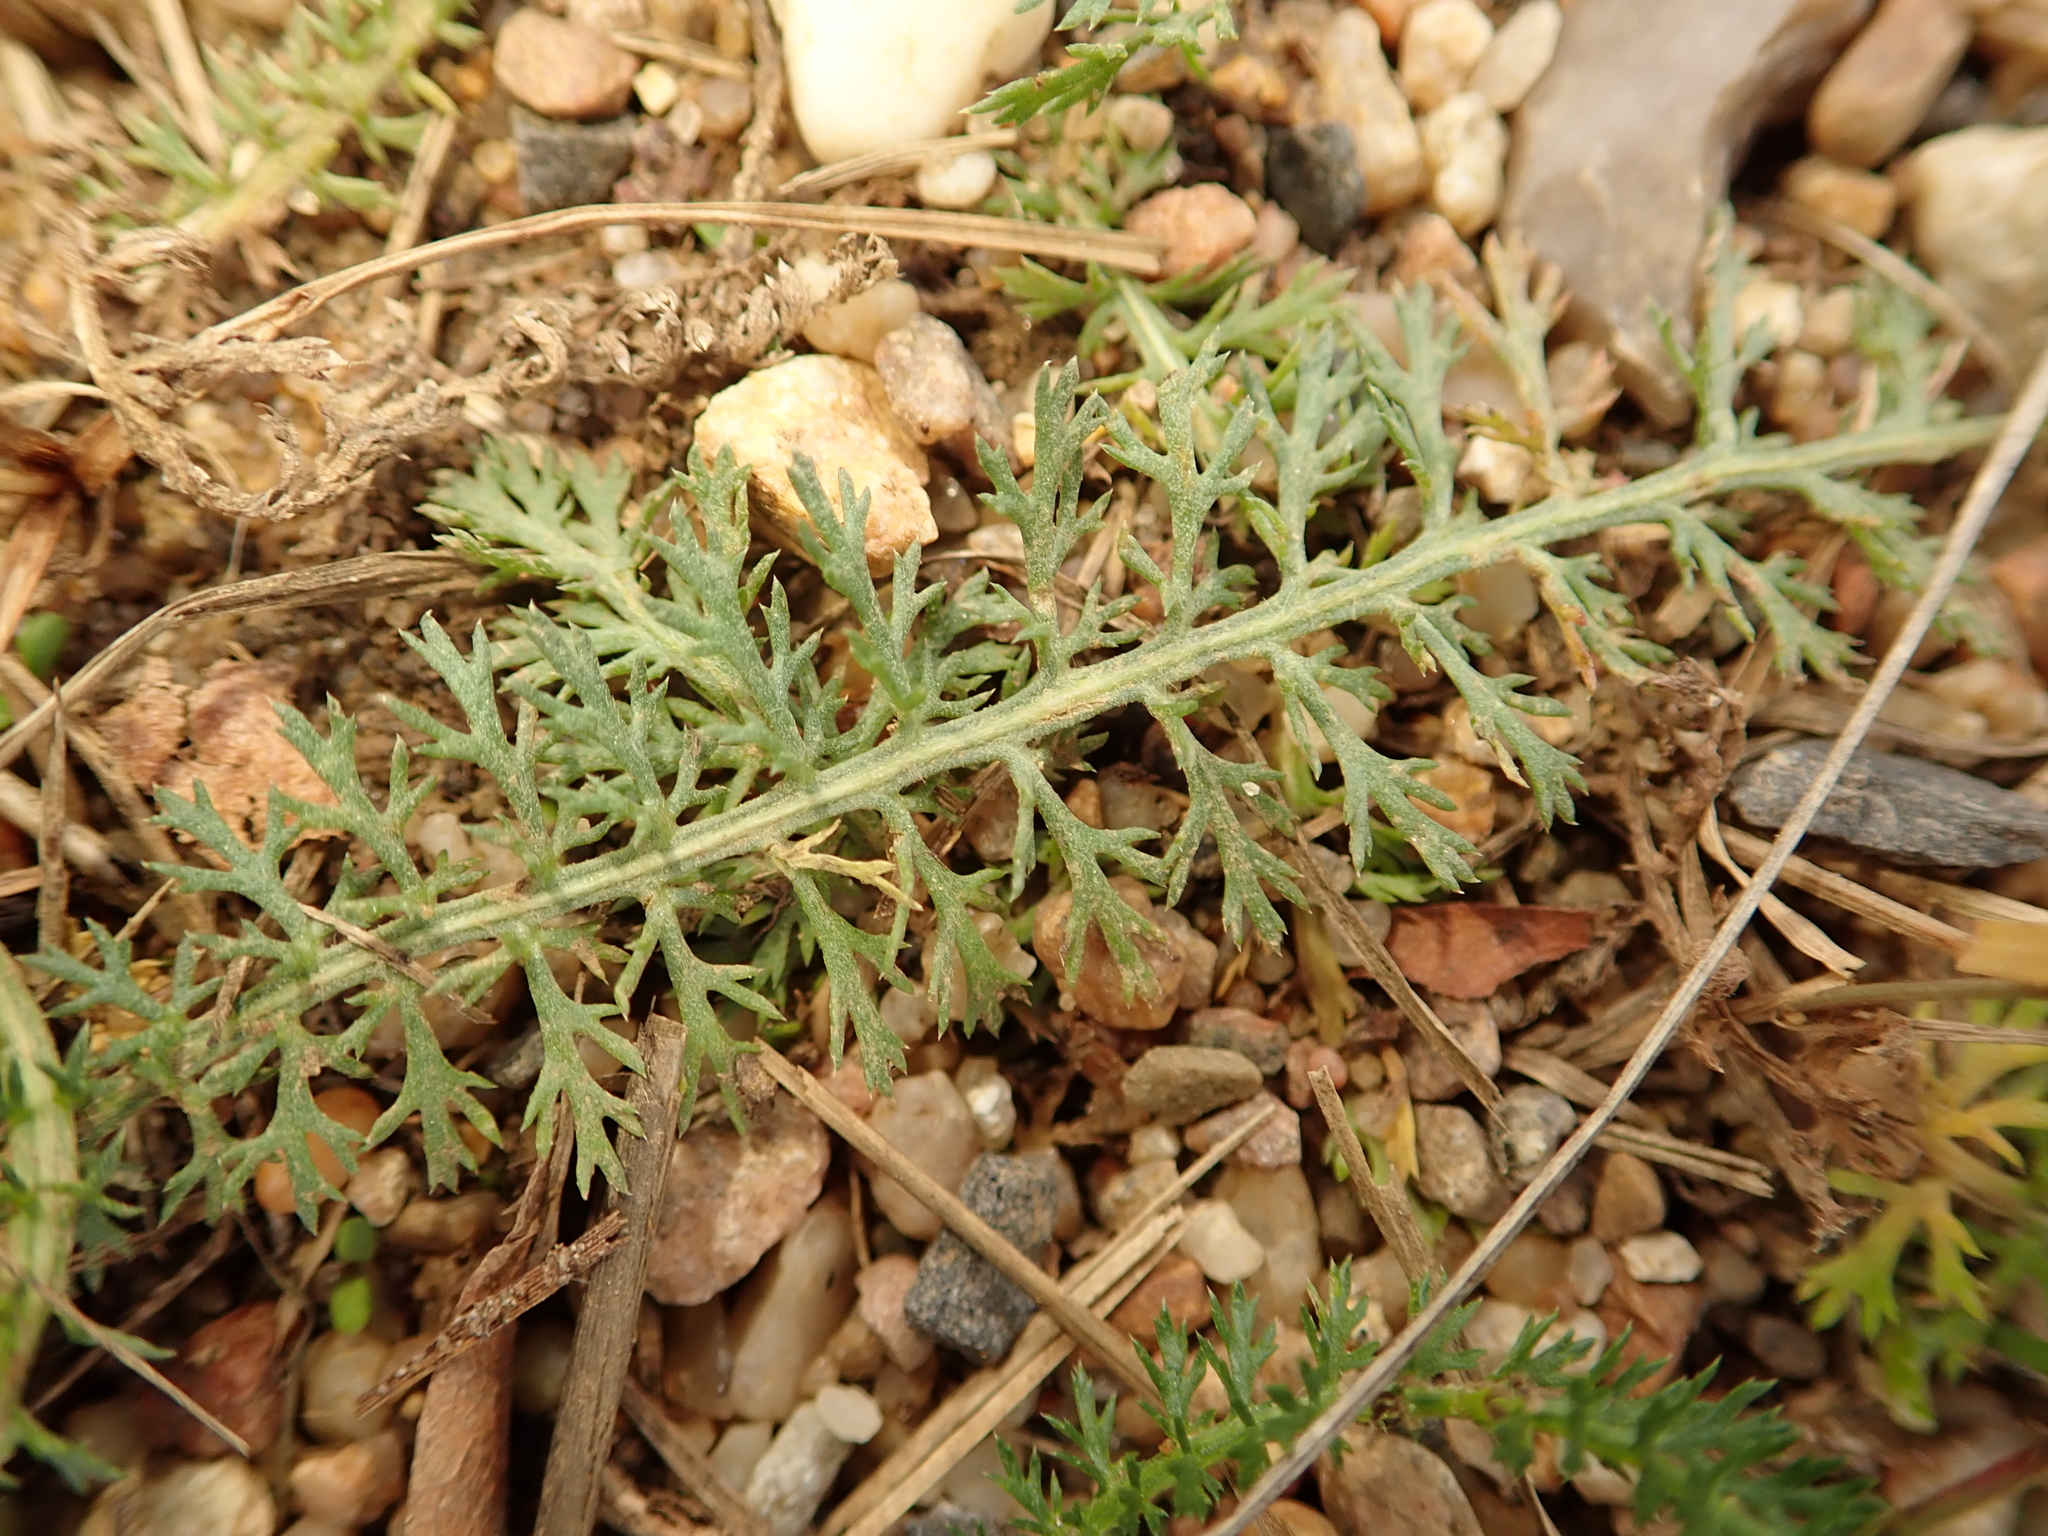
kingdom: Plantae
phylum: Tracheophyta
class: Magnoliopsida
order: Asterales
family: Asteraceae
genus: Achillea
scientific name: Achillea millefolium
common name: Yarrow
